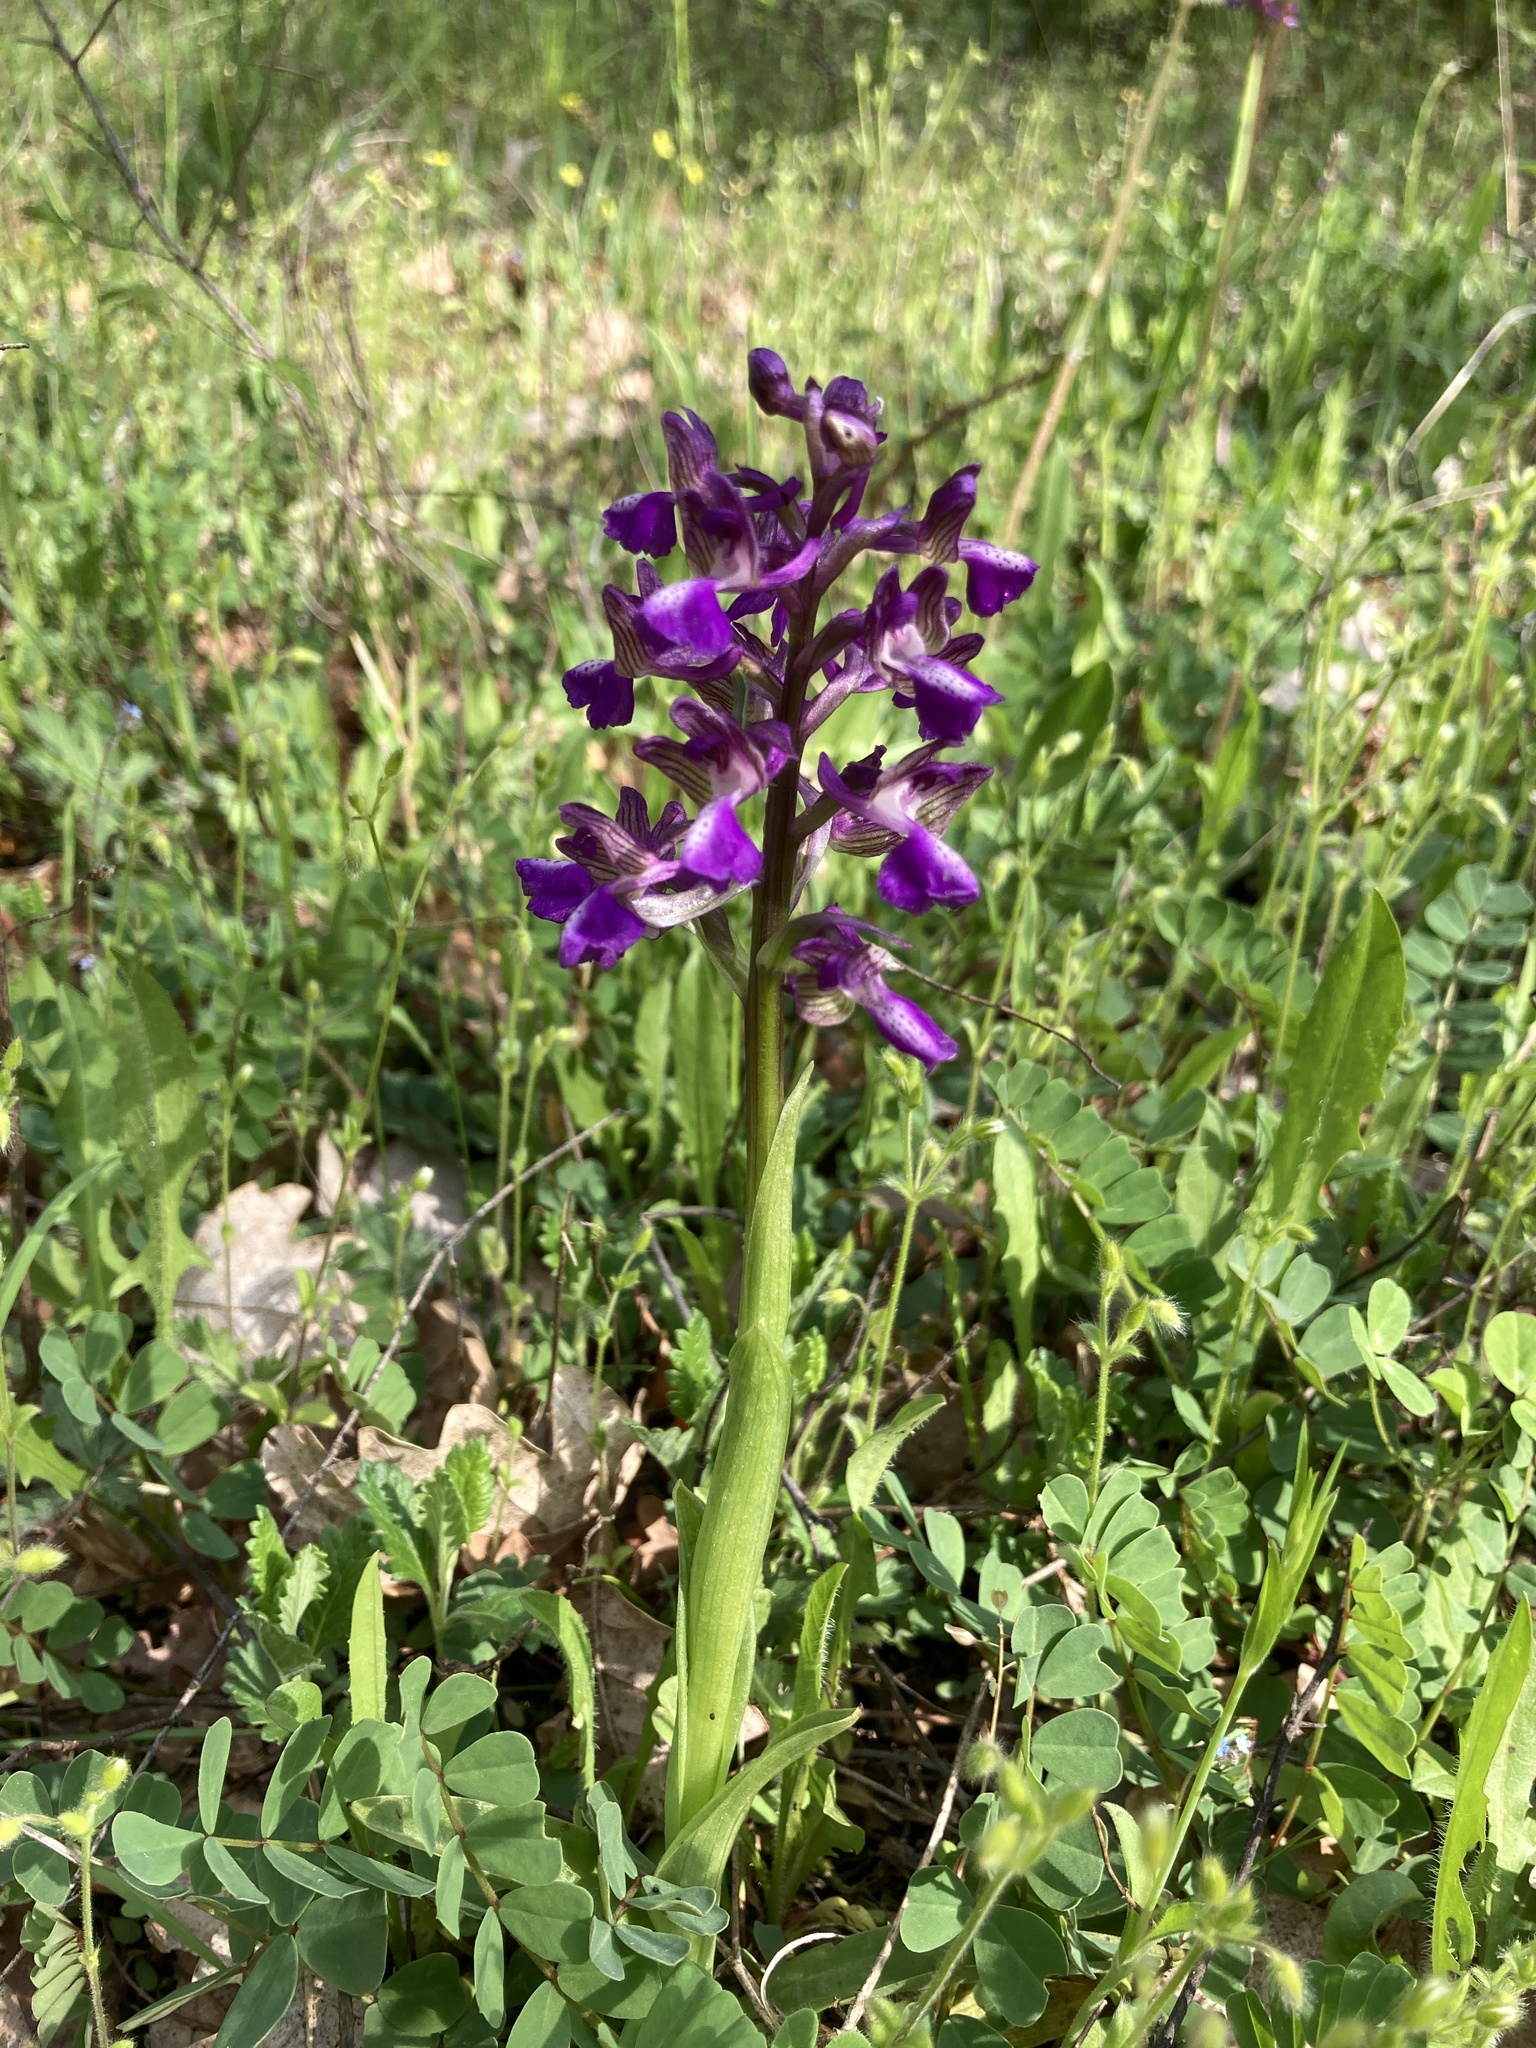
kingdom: Plantae
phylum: Tracheophyta
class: Liliopsida
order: Asparagales
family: Orchidaceae
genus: Anacamptis
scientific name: Anacamptis morio
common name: Green-winged orchid
